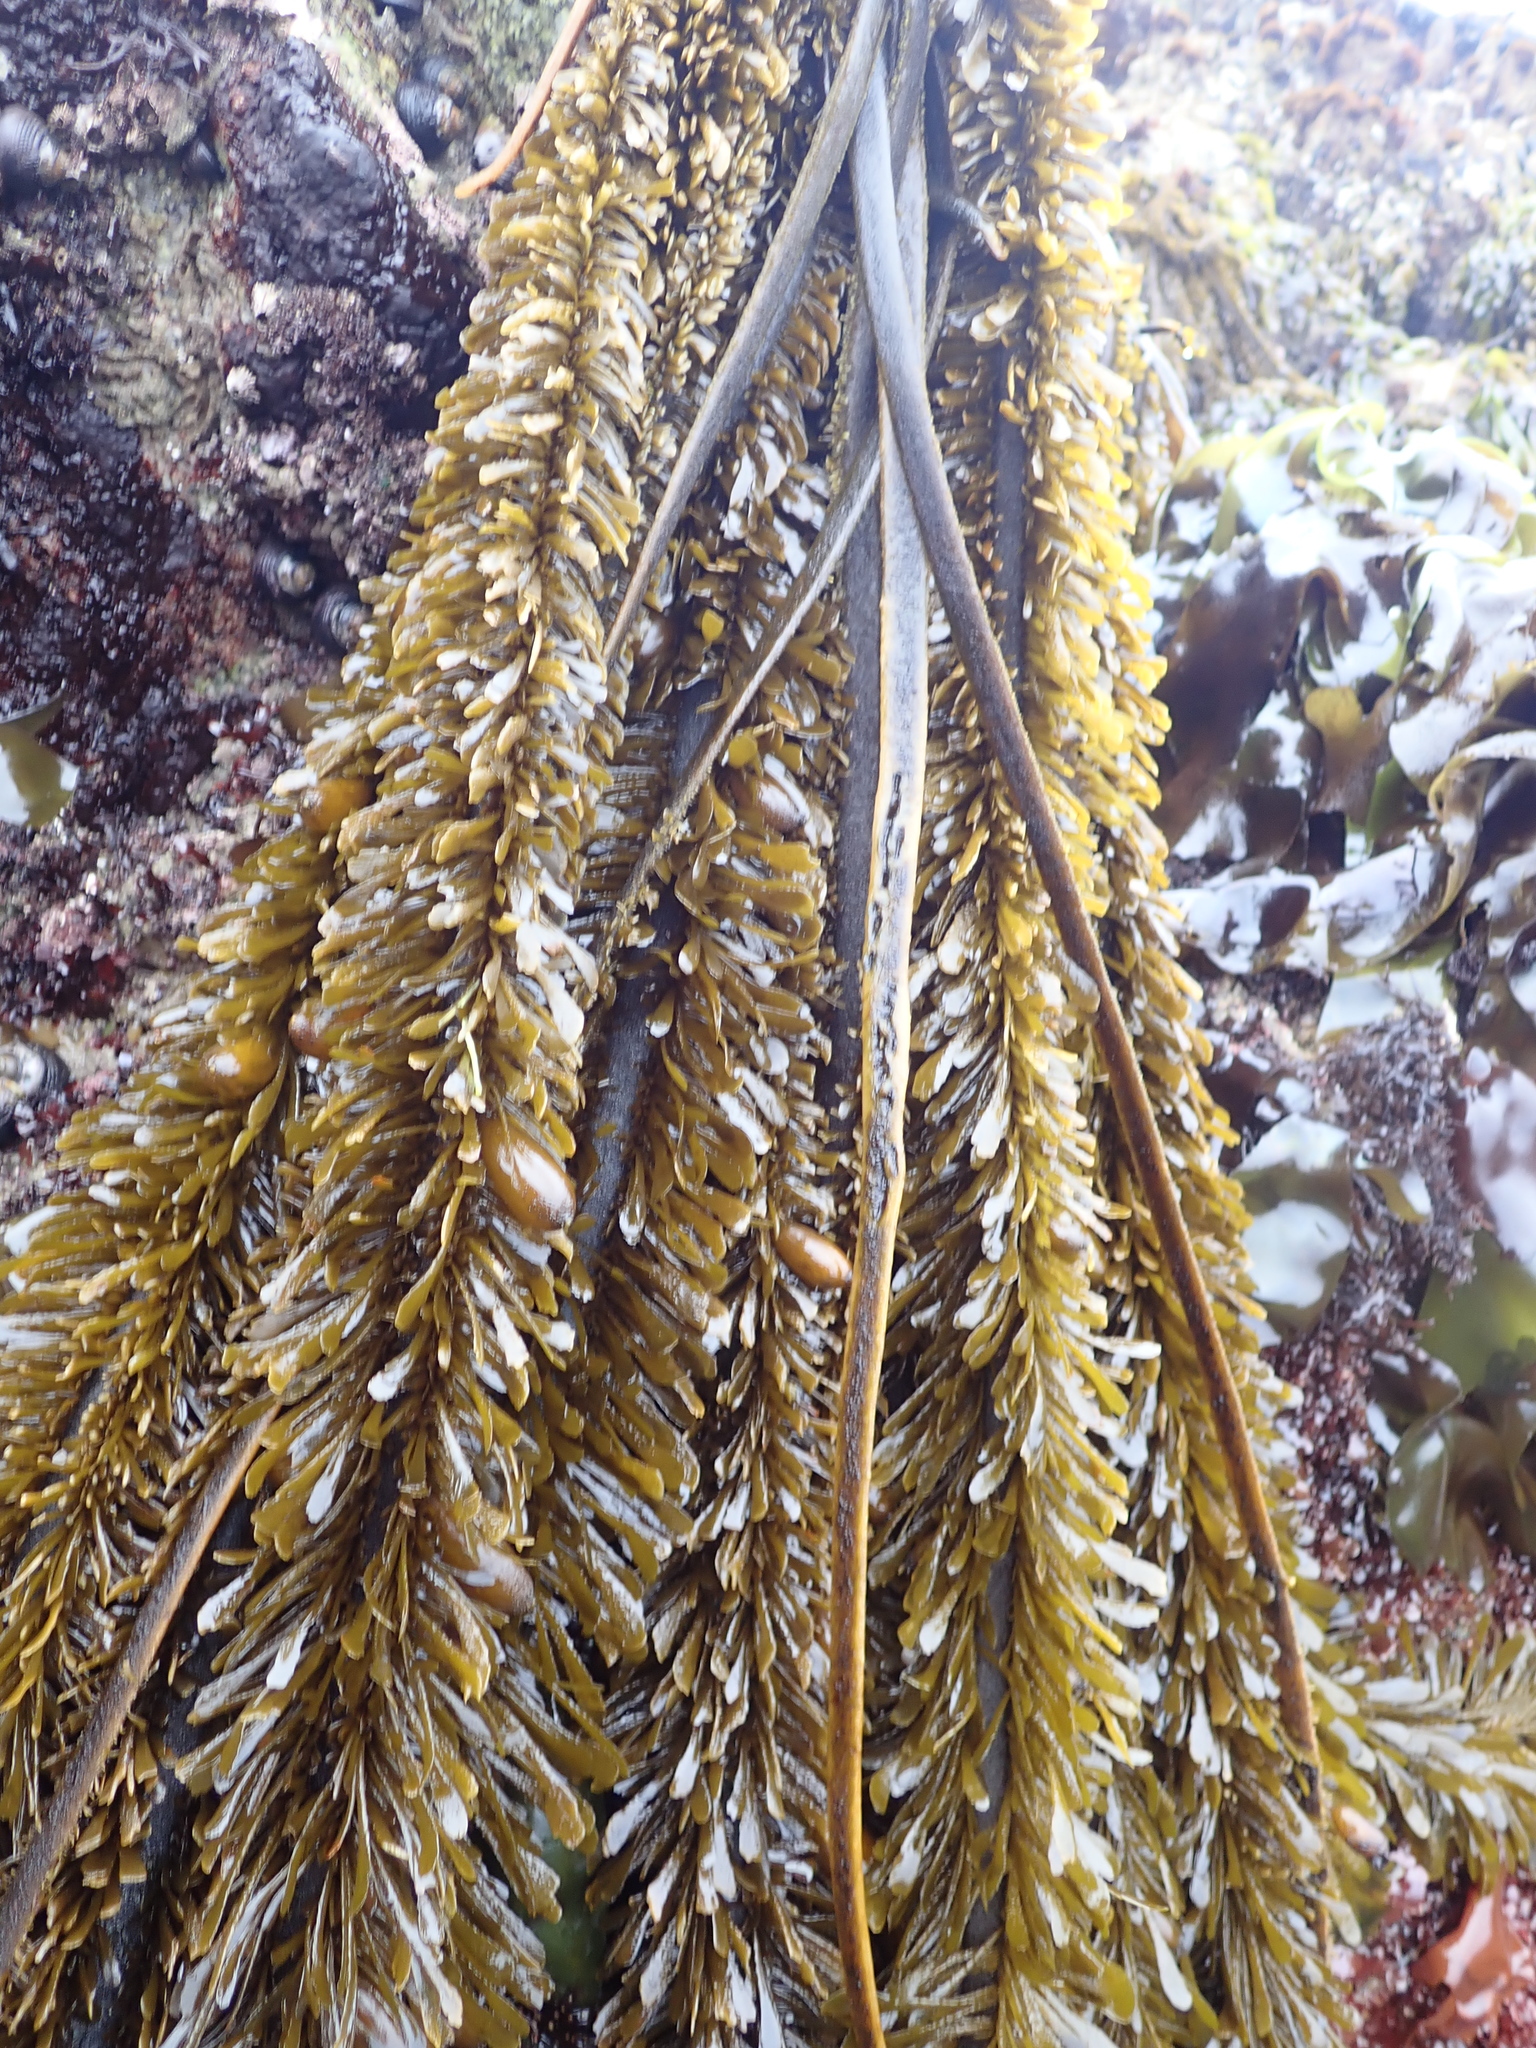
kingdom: Chromista
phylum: Ochrophyta
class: Phaeophyceae
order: Laminariales
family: Lessoniaceae
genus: Egregia
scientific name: Egregia menziesii
